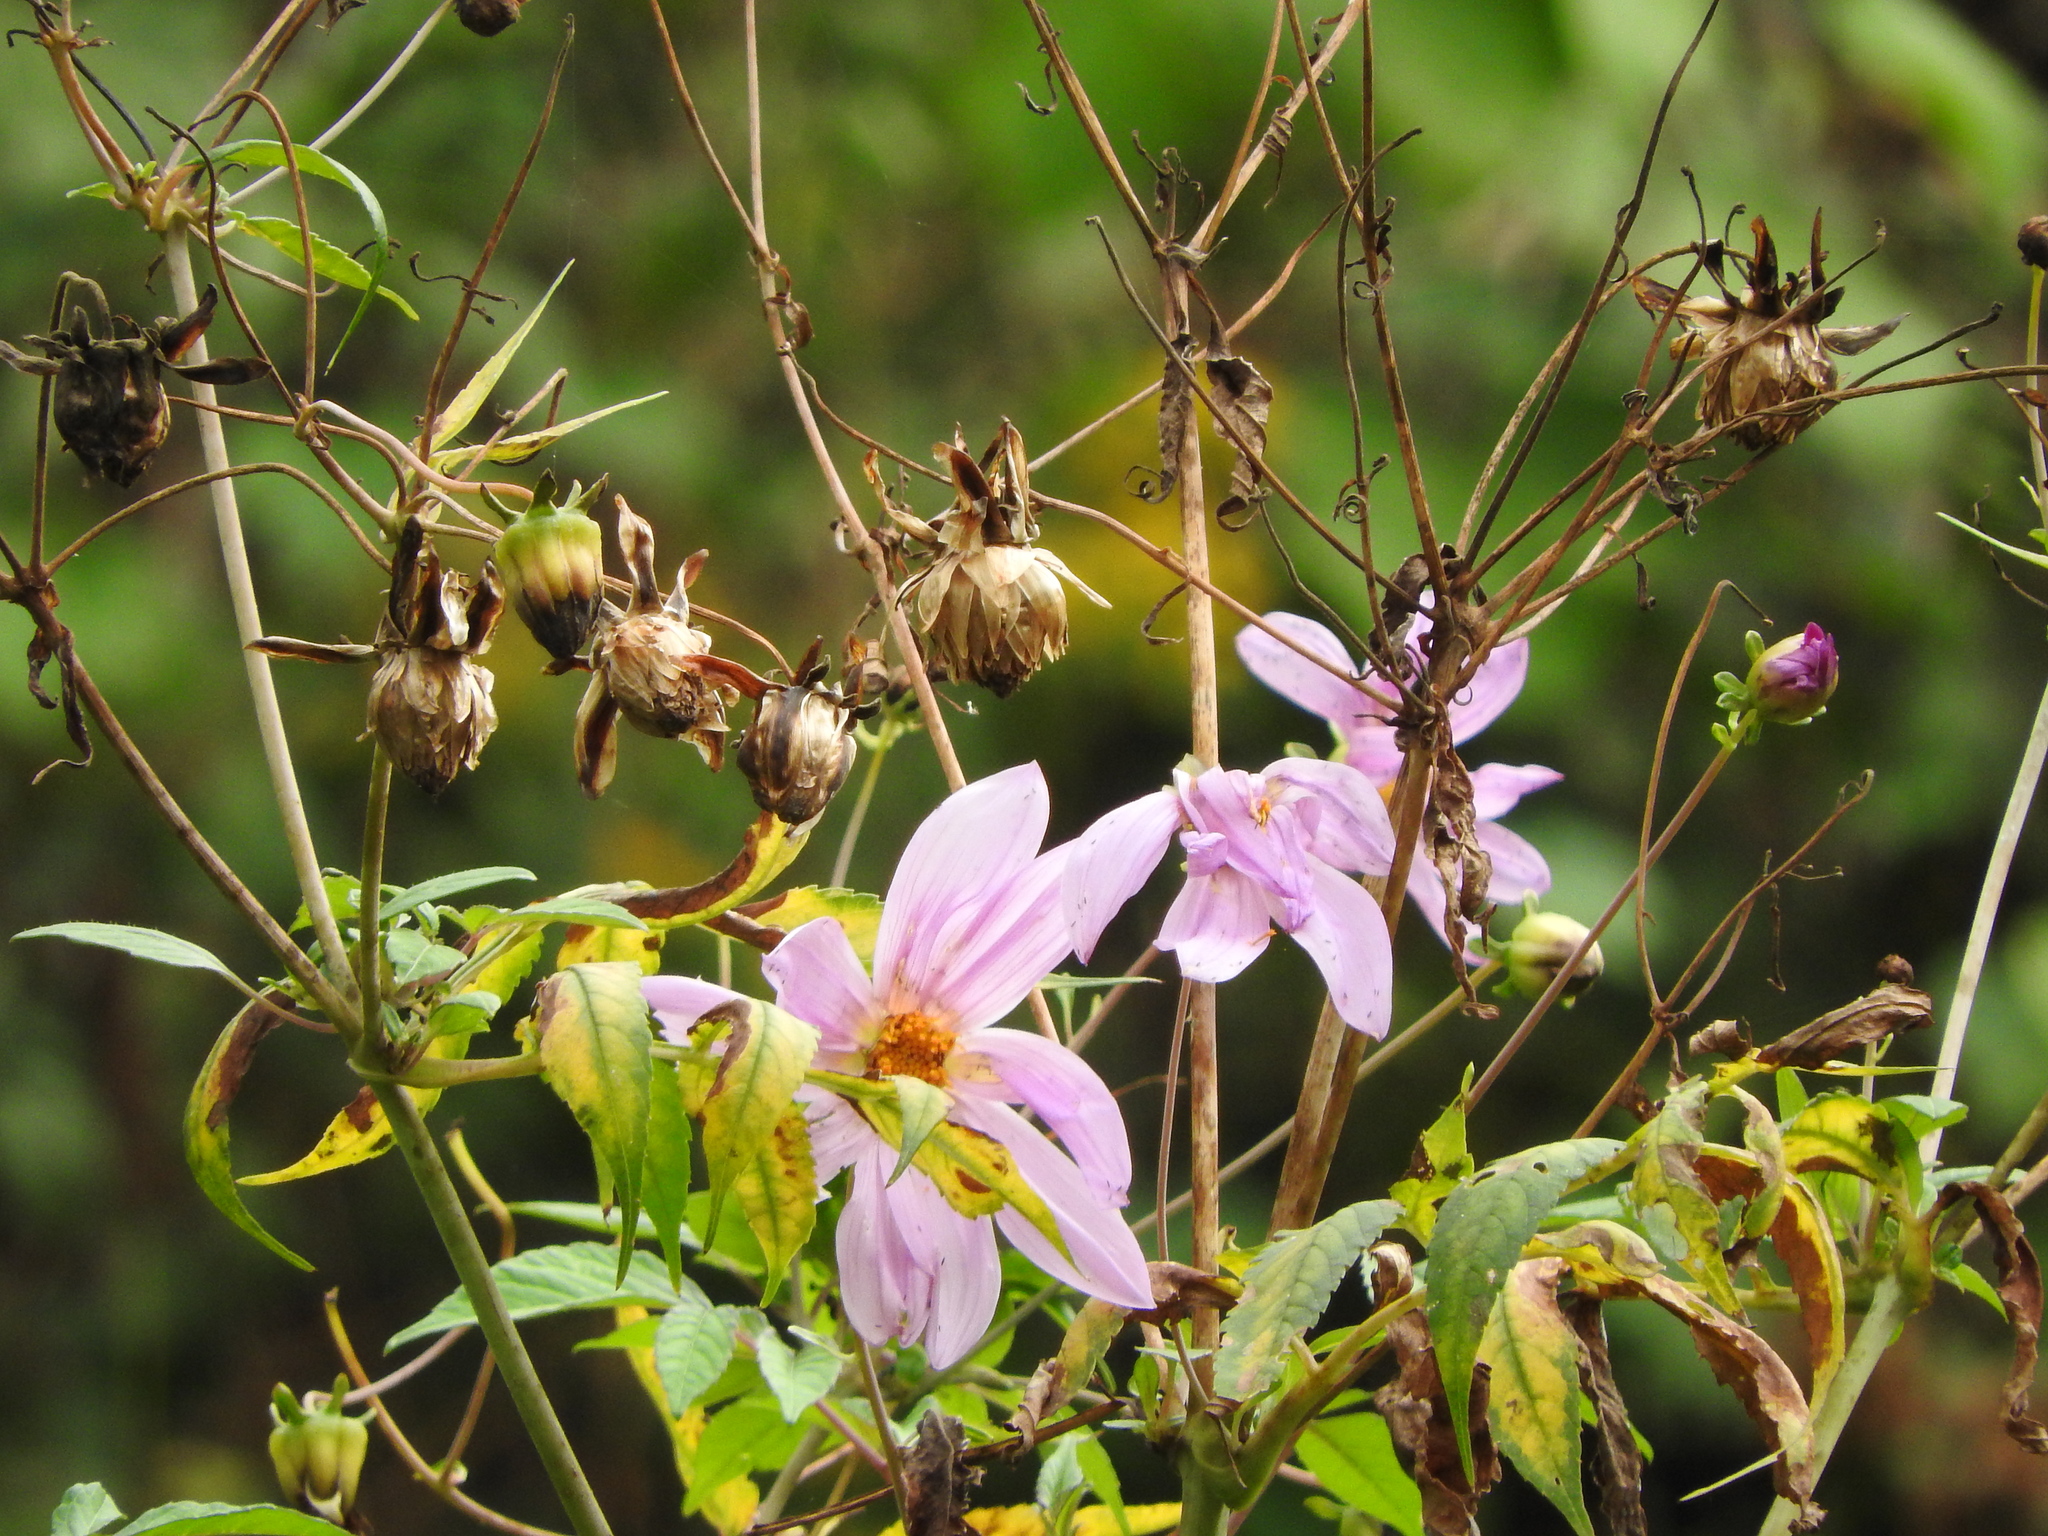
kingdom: Plantae
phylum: Tracheophyta
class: Magnoliopsida
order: Asterales
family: Asteraceae
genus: Dahlia
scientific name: Dahlia imperialis
